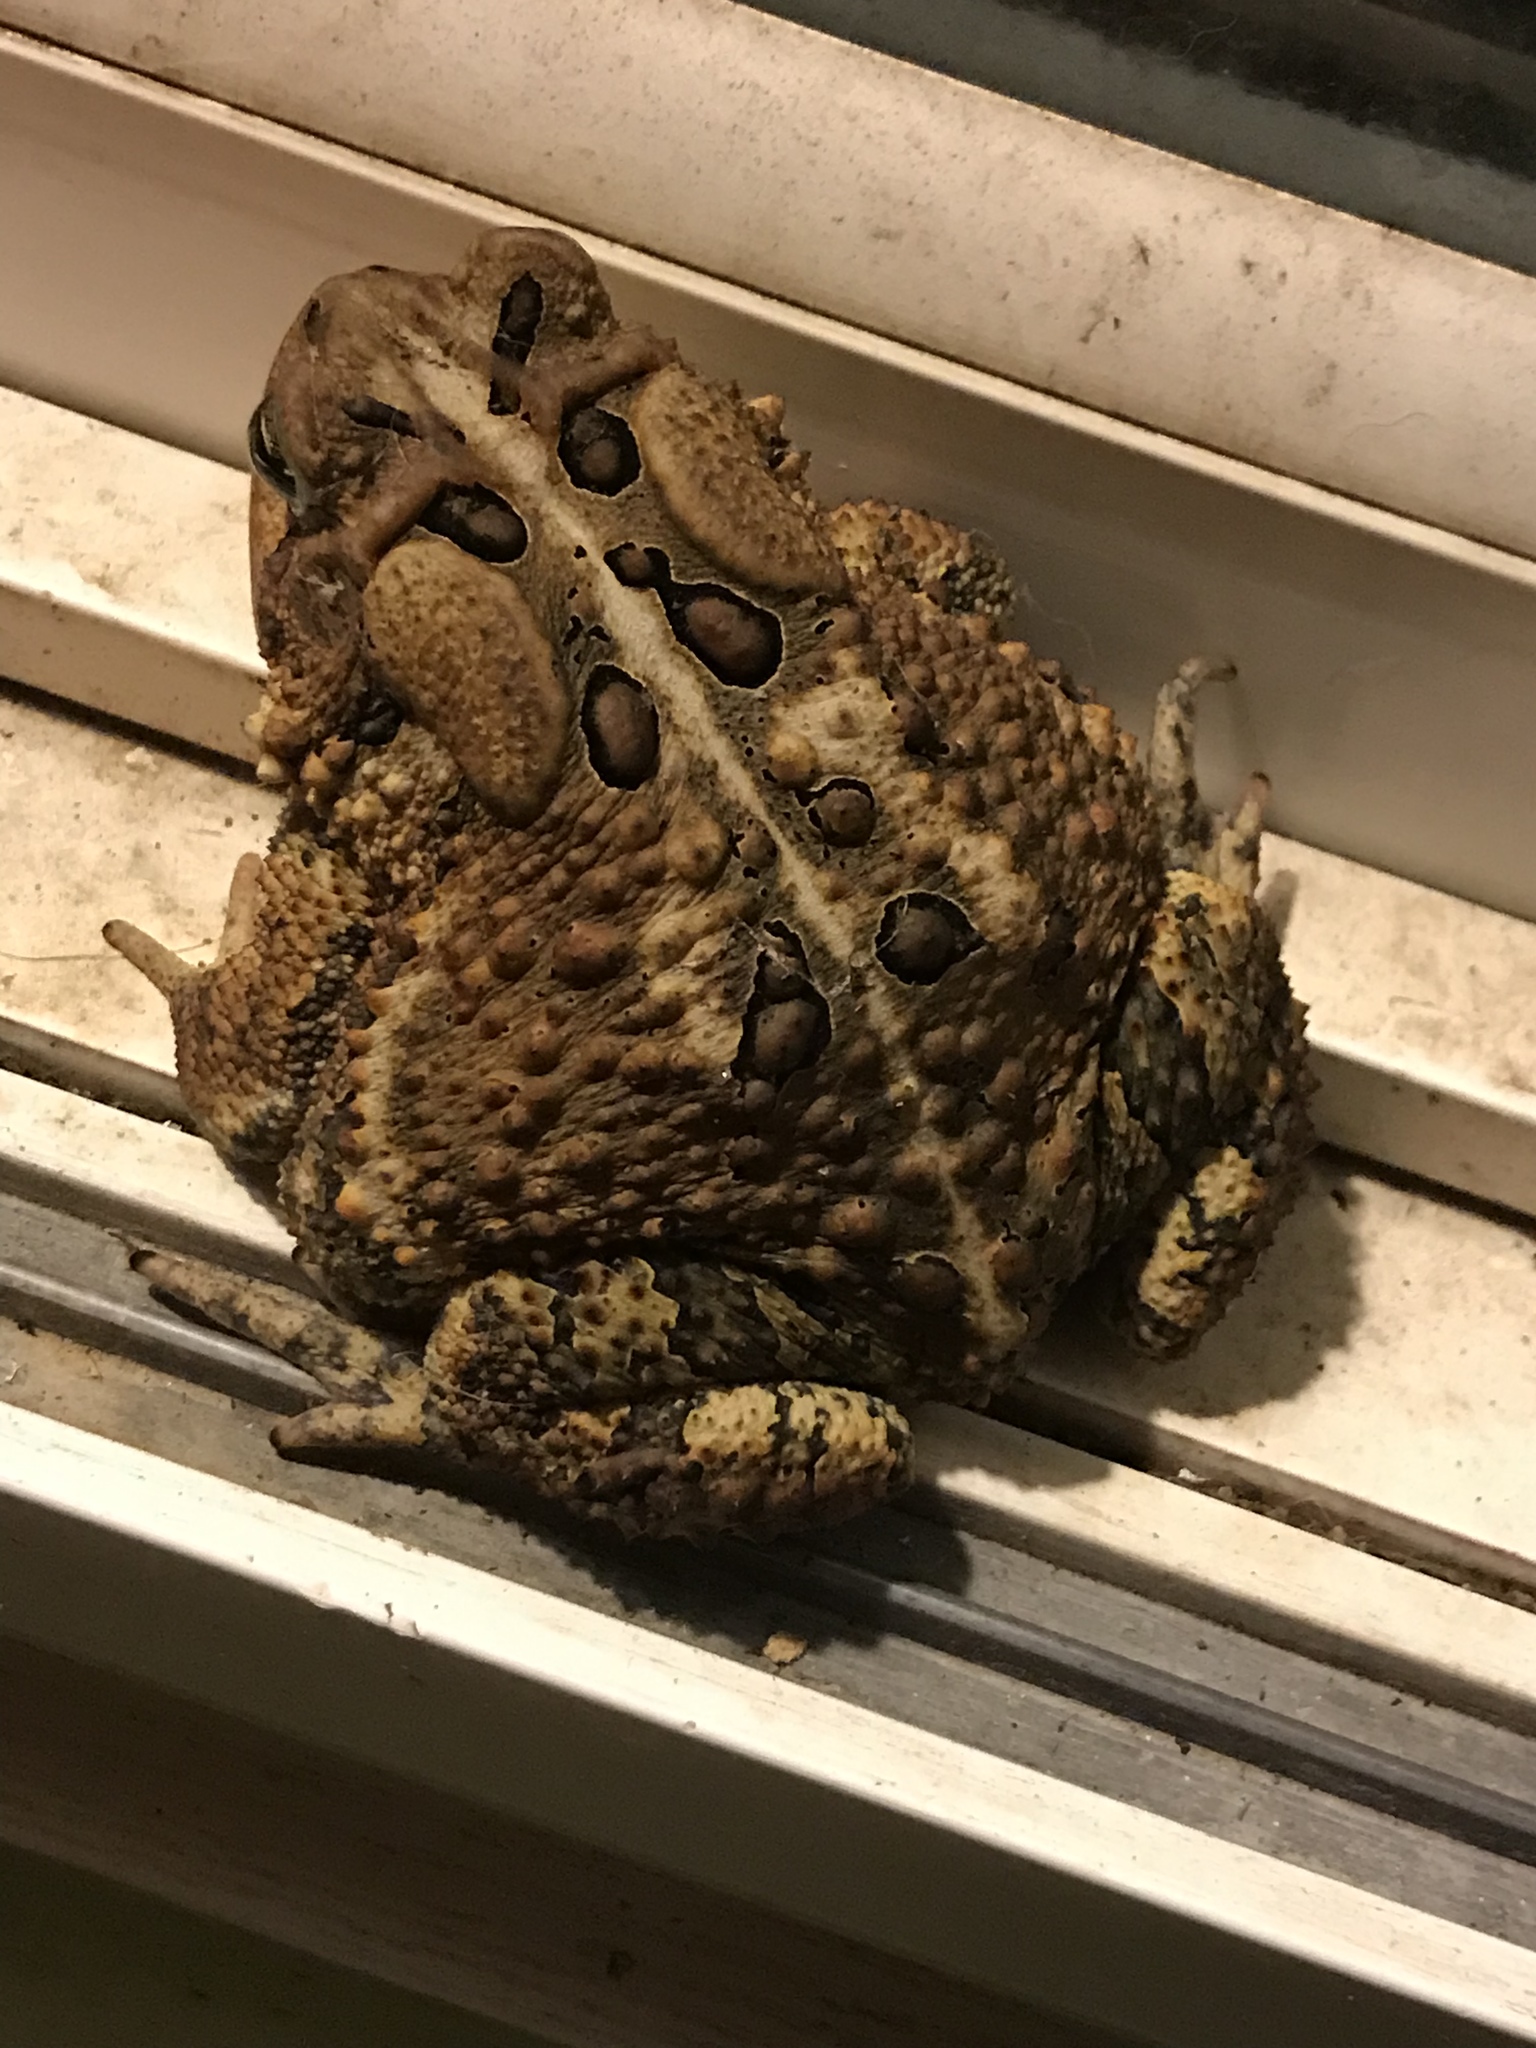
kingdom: Animalia
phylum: Chordata
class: Amphibia
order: Anura
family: Bufonidae
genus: Anaxyrus
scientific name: Anaxyrus americanus
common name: American toad
